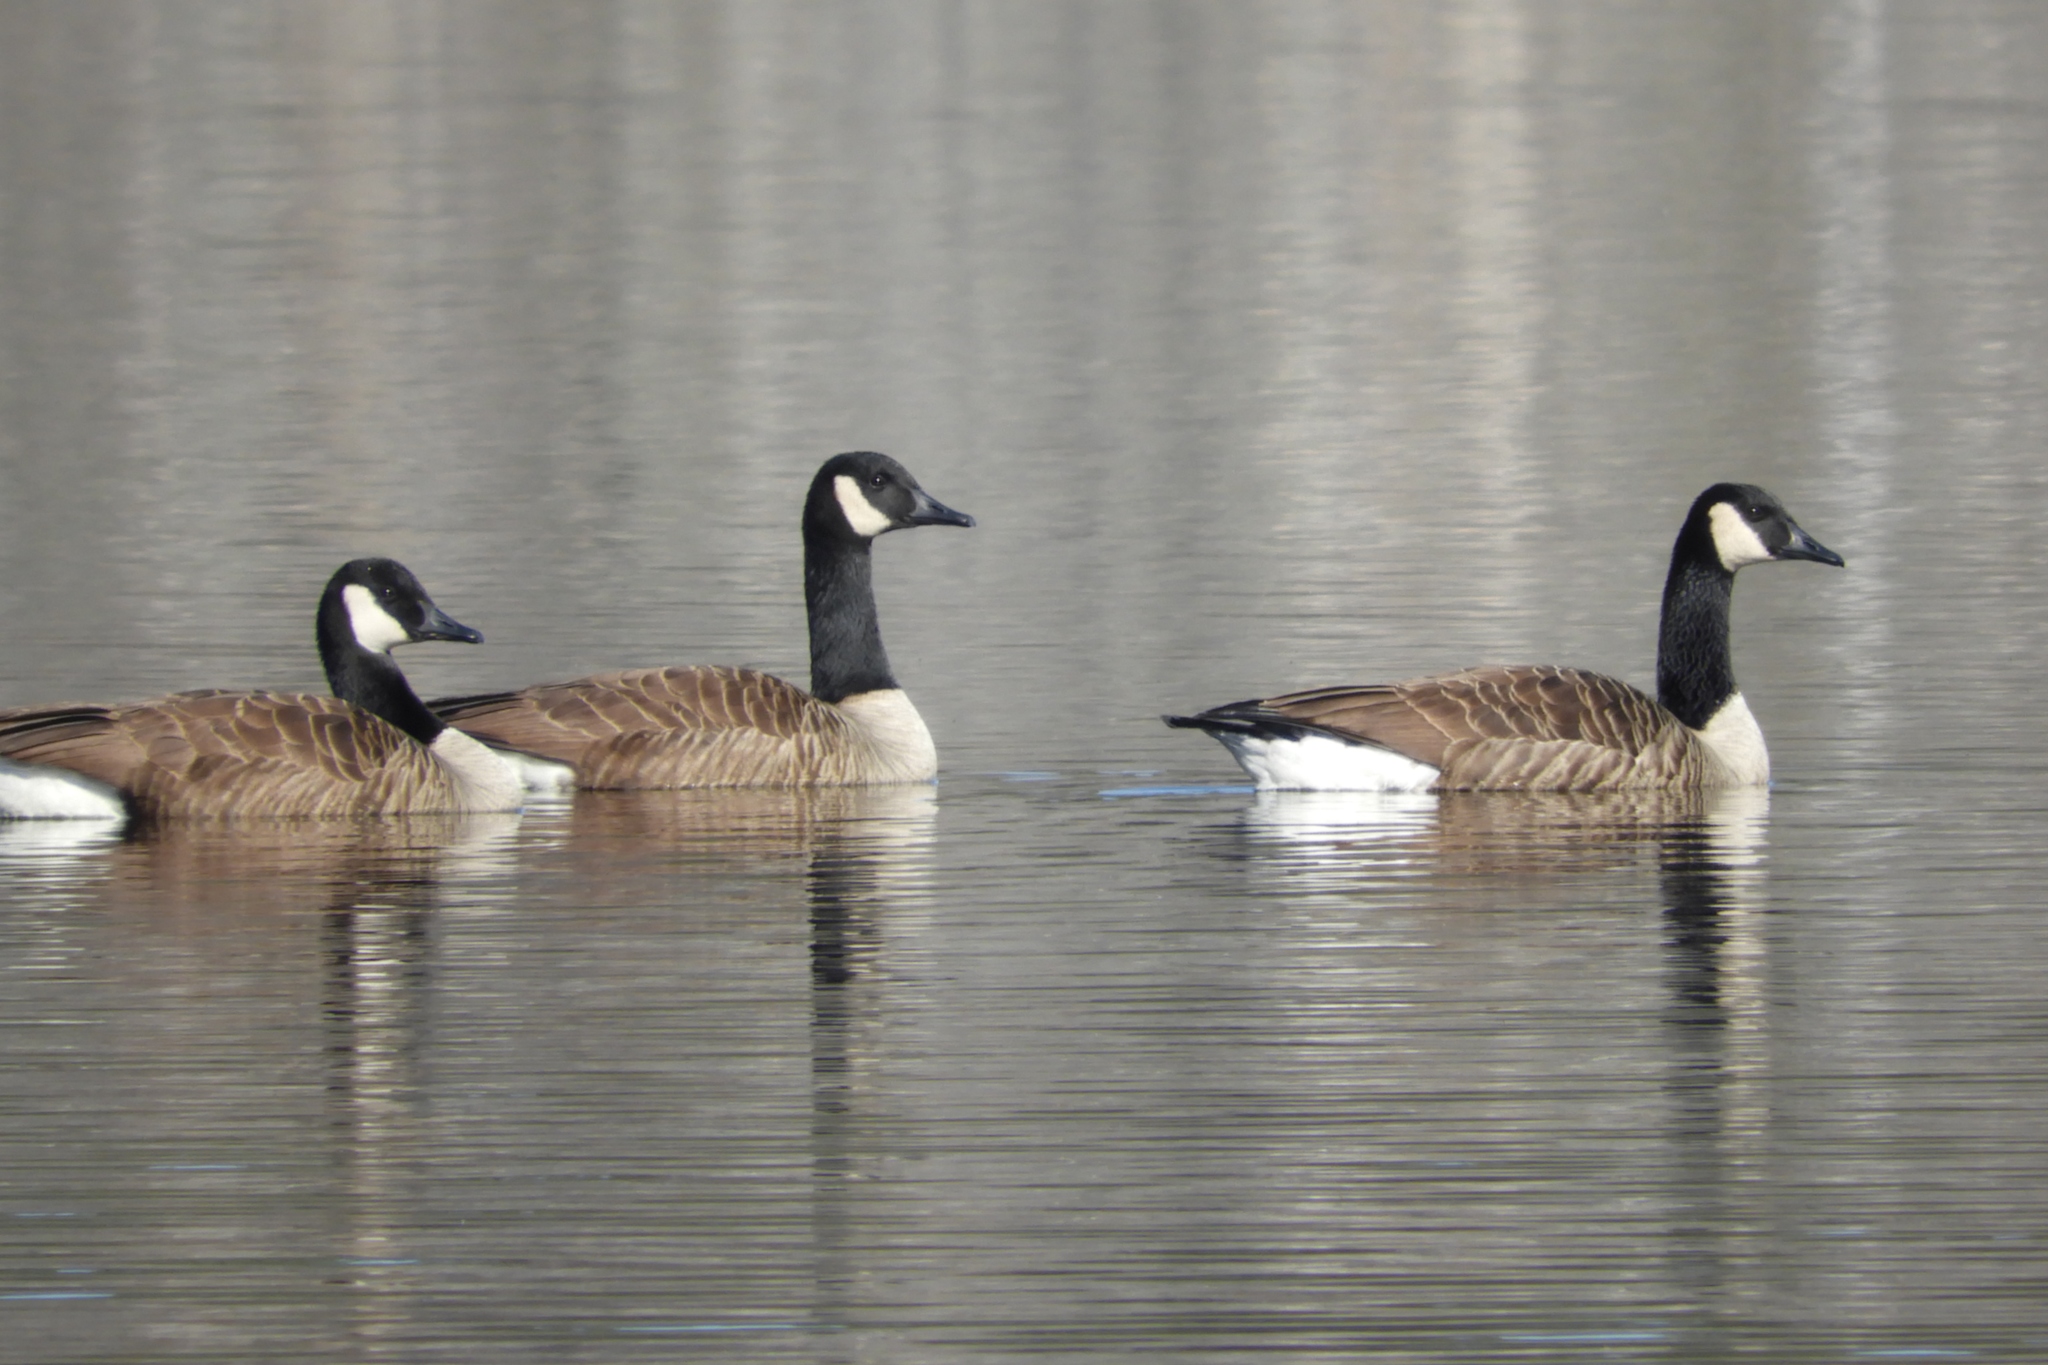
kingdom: Animalia
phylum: Chordata
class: Aves
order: Anseriformes
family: Anatidae
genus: Branta
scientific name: Branta canadensis
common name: Canada goose
